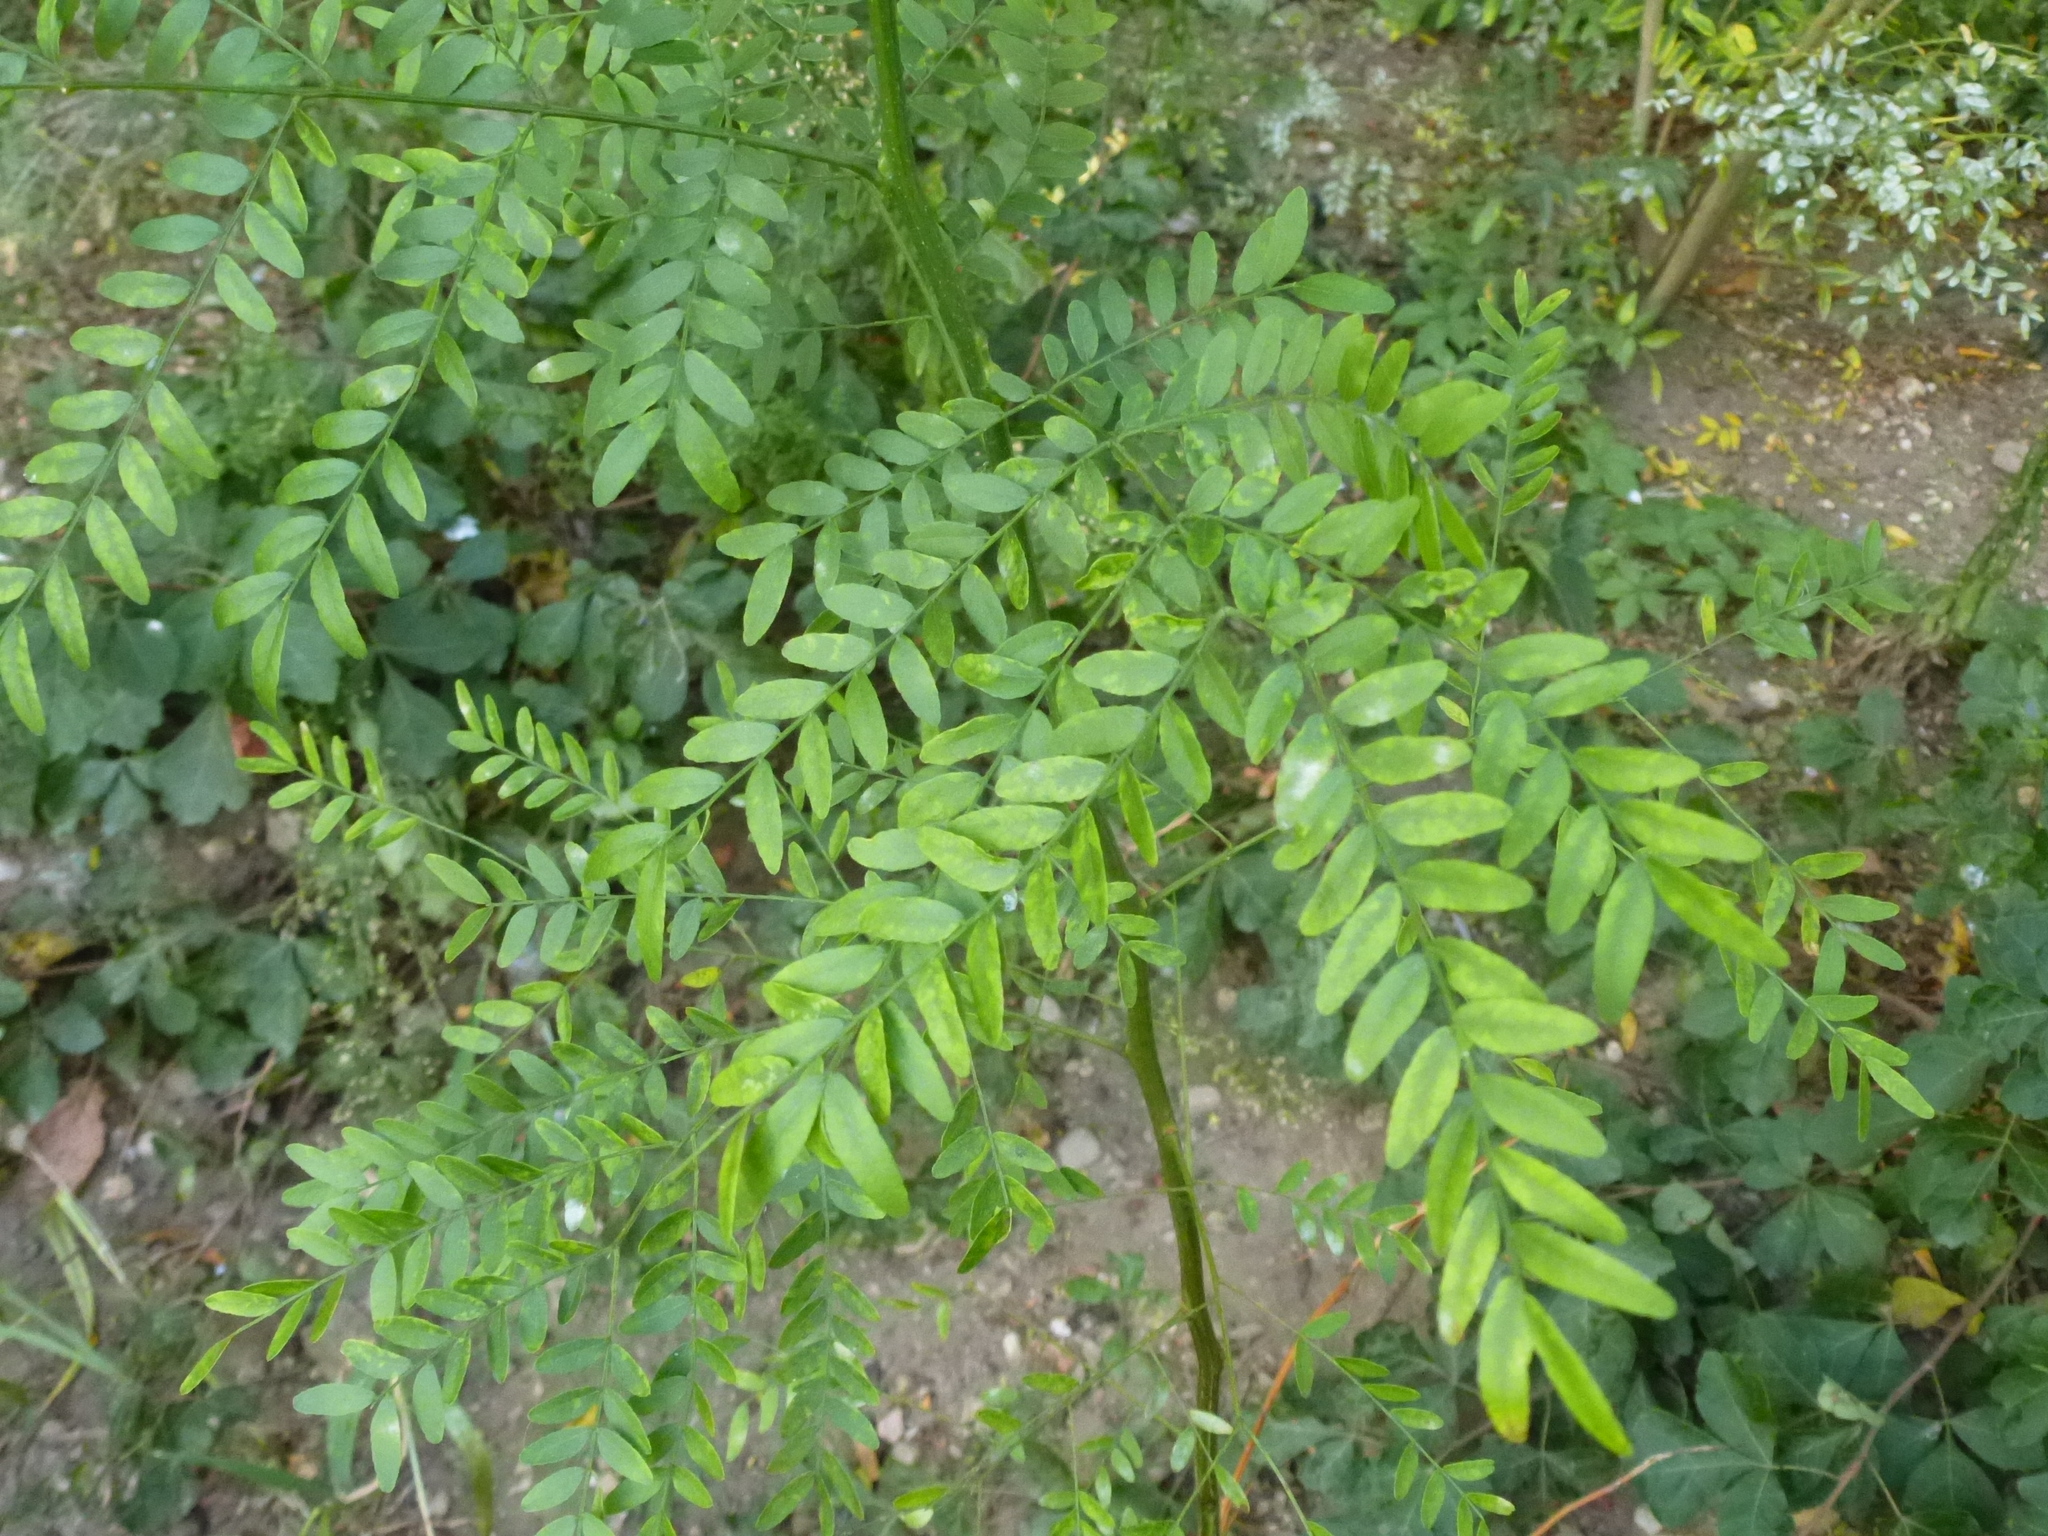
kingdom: Plantae
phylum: Tracheophyta
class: Magnoliopsida
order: Fabales
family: Fabaceae
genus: Gleditsia
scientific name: Gleditsia triacanthos
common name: Common honeylocust
